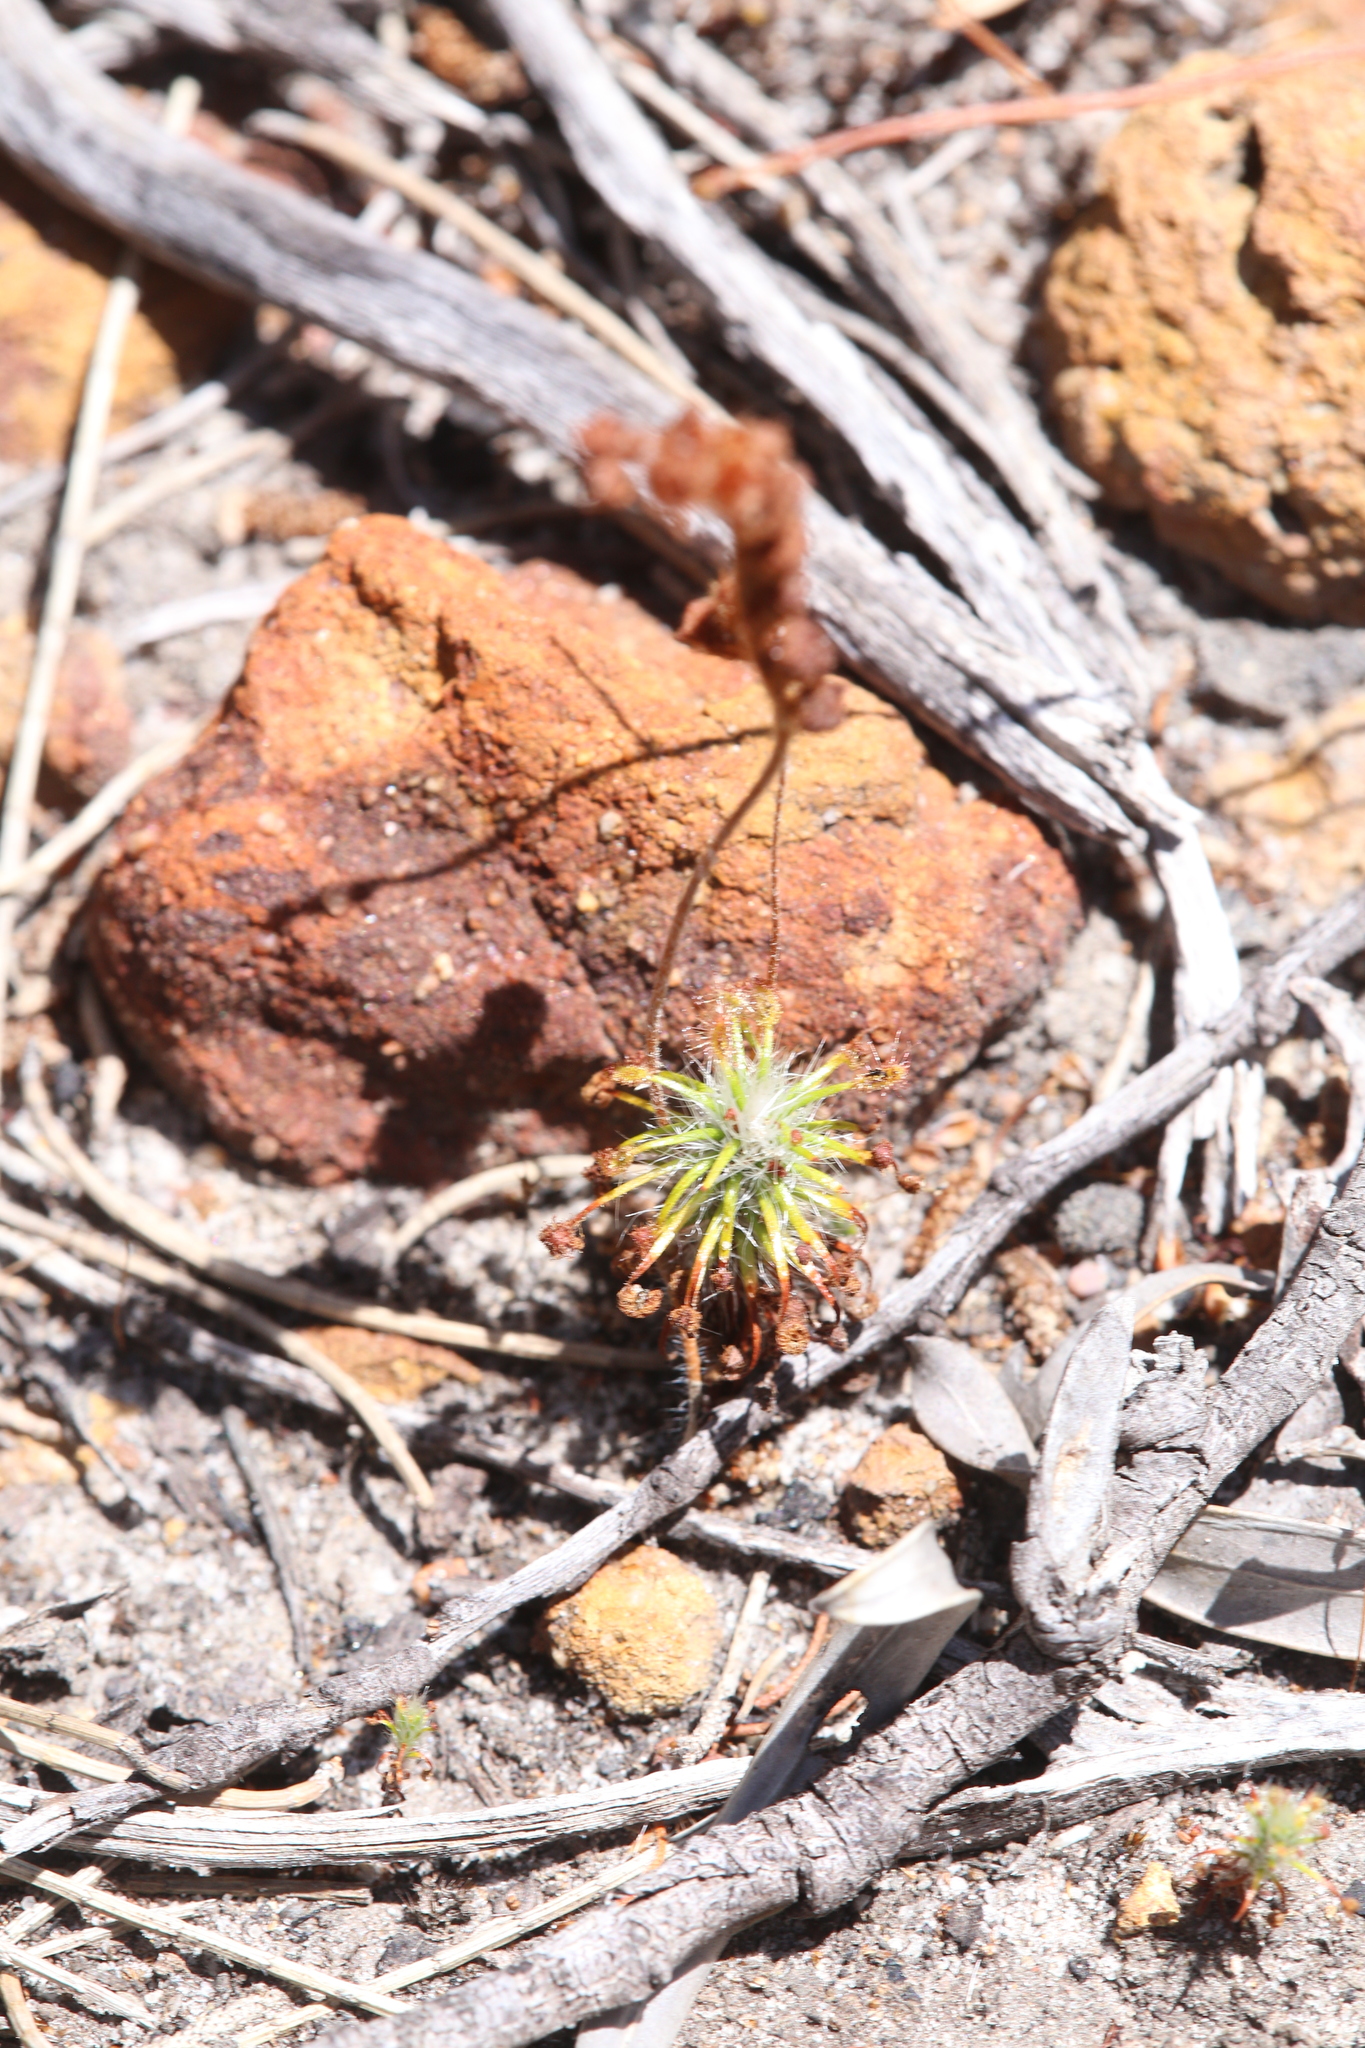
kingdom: Plantae
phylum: Tracheophyta
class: Magnoliopsida
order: Caryophyllales
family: Droseraceae
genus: Drosera
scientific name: Drosera barbigera
